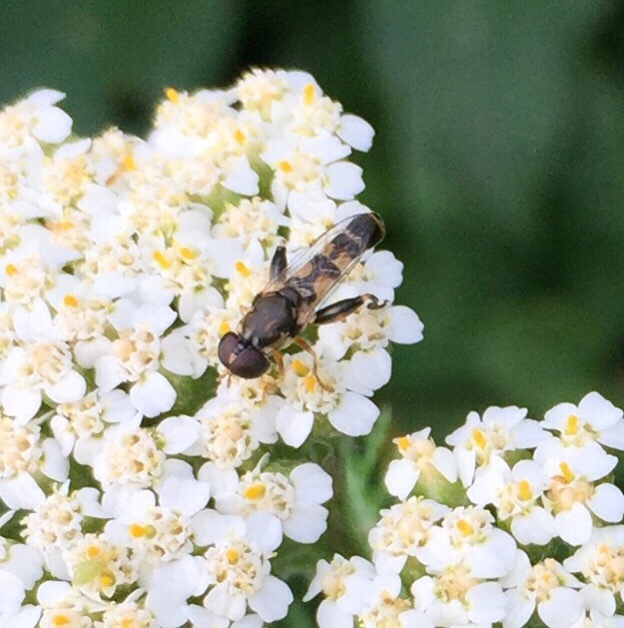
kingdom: Animalia
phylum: Arthropoda
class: Insecta
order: Diptera
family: Syrphidae
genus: Syritta
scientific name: Syritta pipiens
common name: Hover fly
